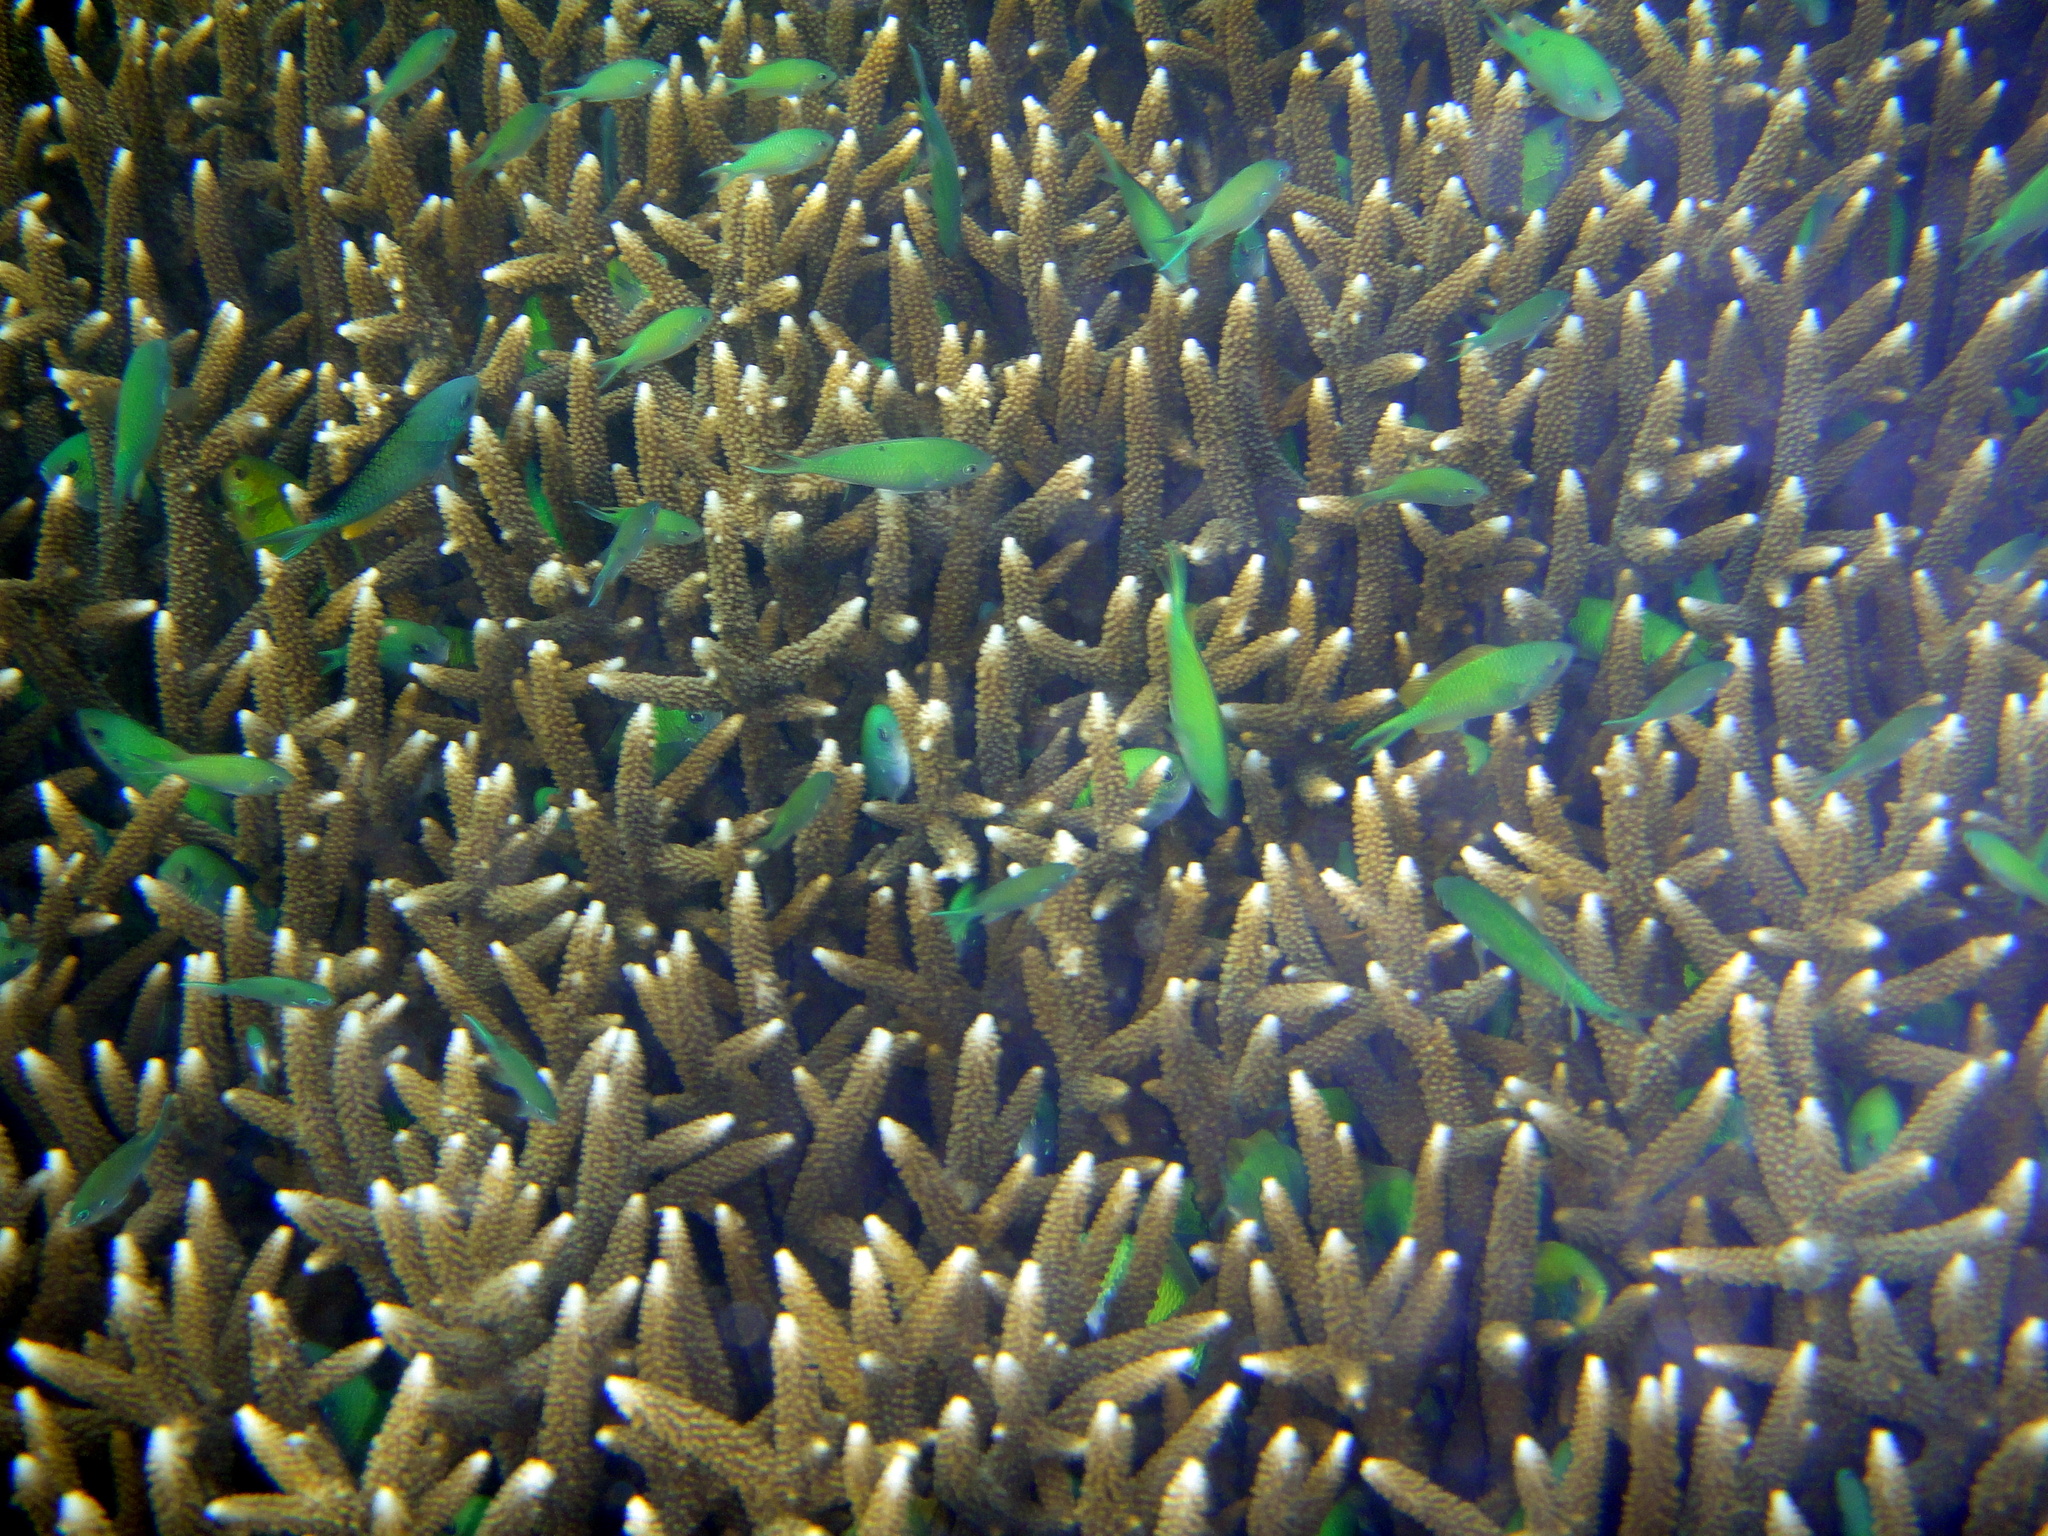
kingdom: Animalia
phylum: Chordata
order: Perciformes
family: Pomacentridae
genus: Chromis
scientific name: Chromis viridis
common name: Blue-green chromis
